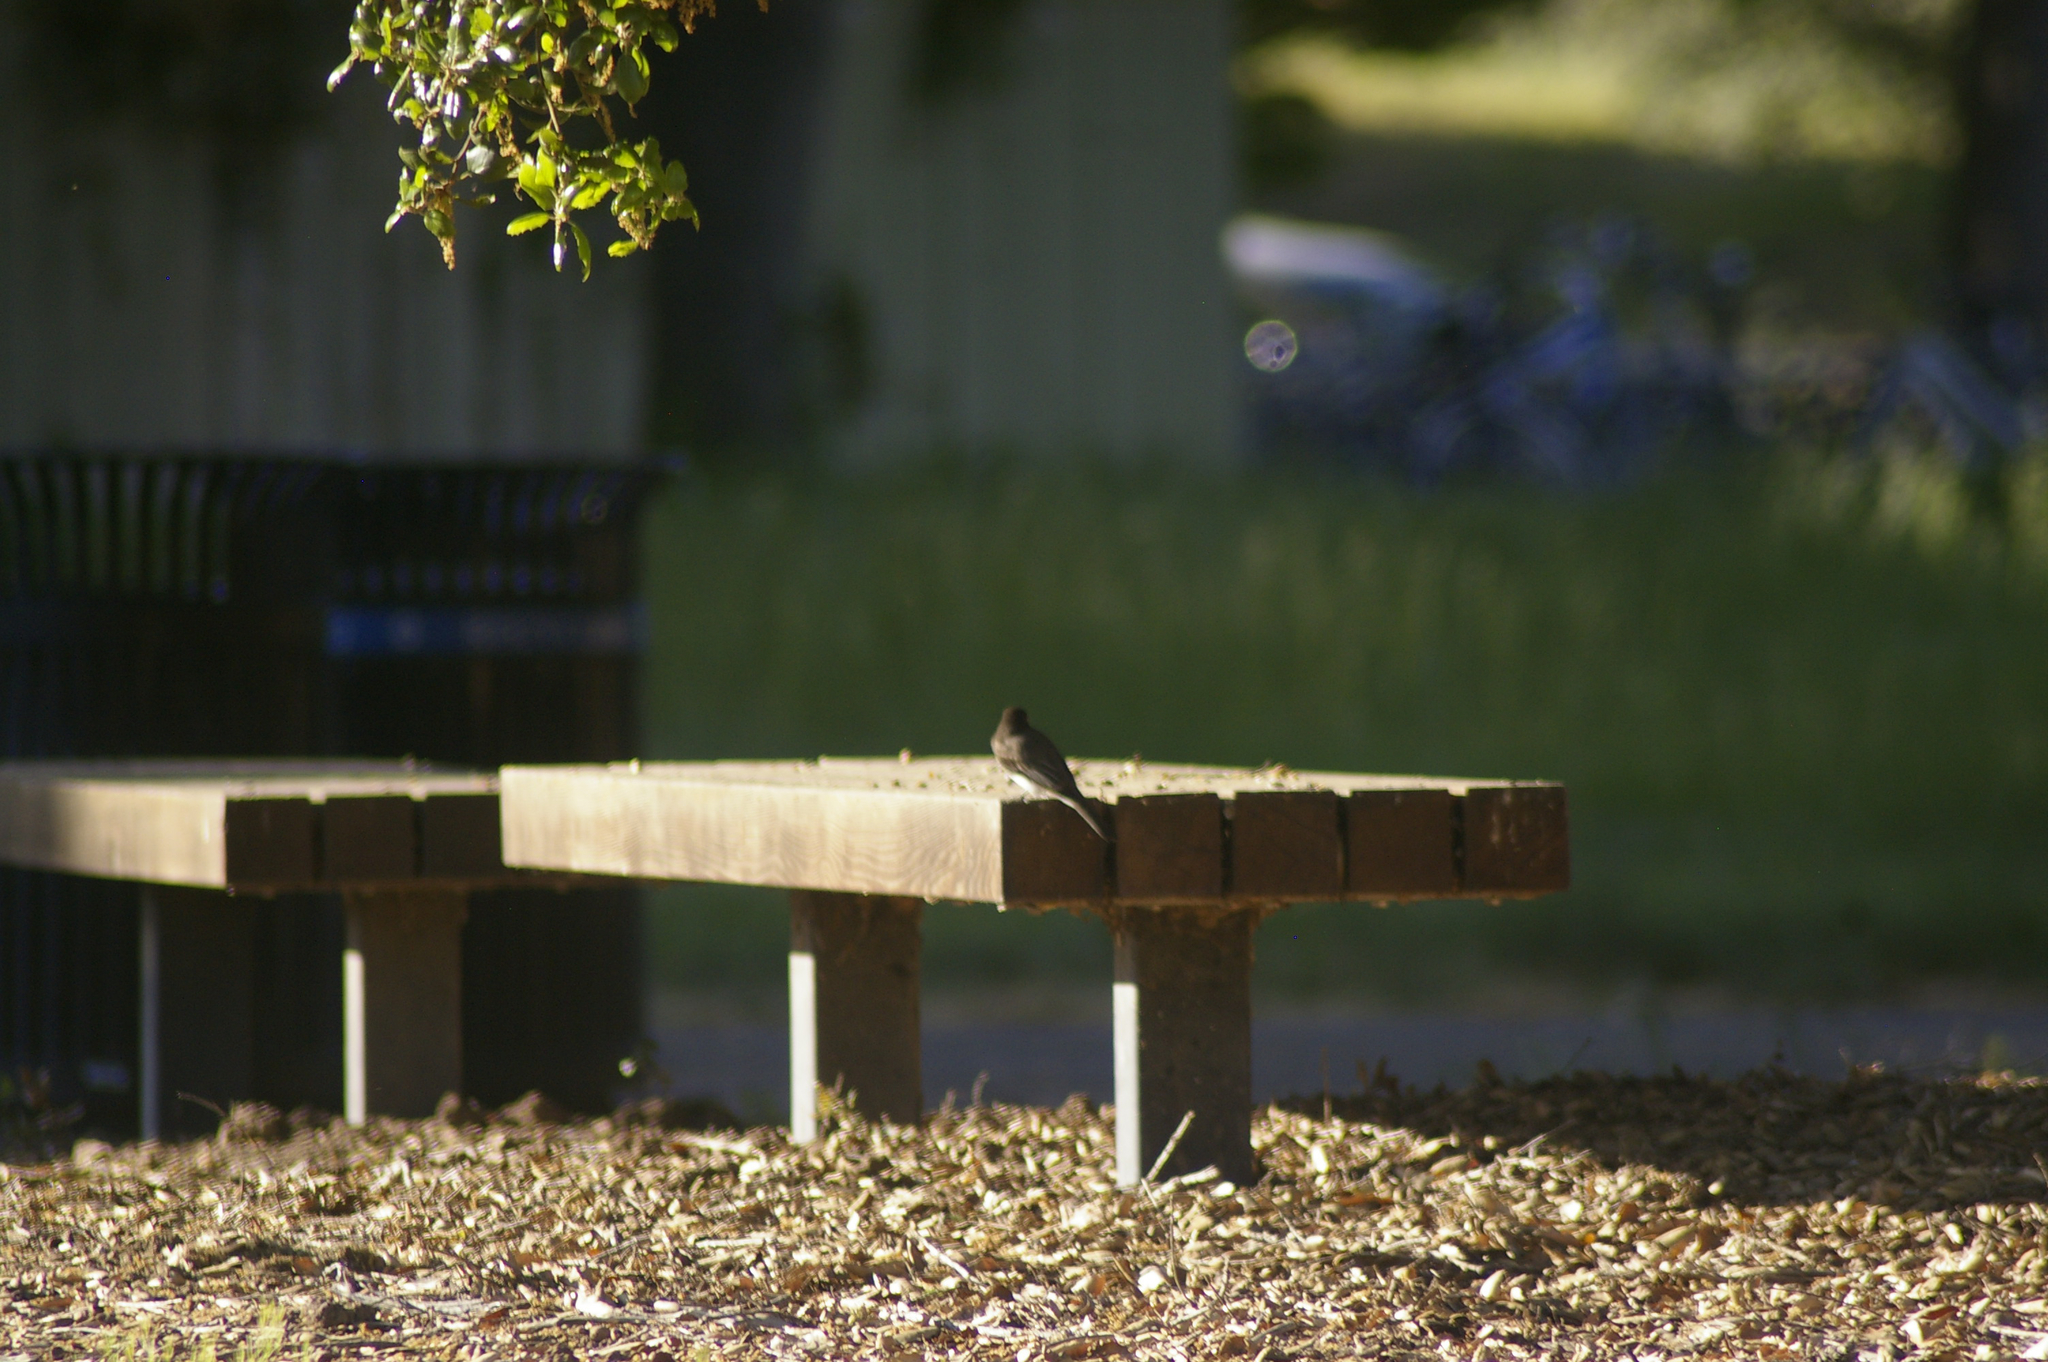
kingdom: Animalia
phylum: Chordata
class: Aves
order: Passeriformes
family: Tyrannidae
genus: Sayornis
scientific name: Sayornis nigricans
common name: Black phoebe
